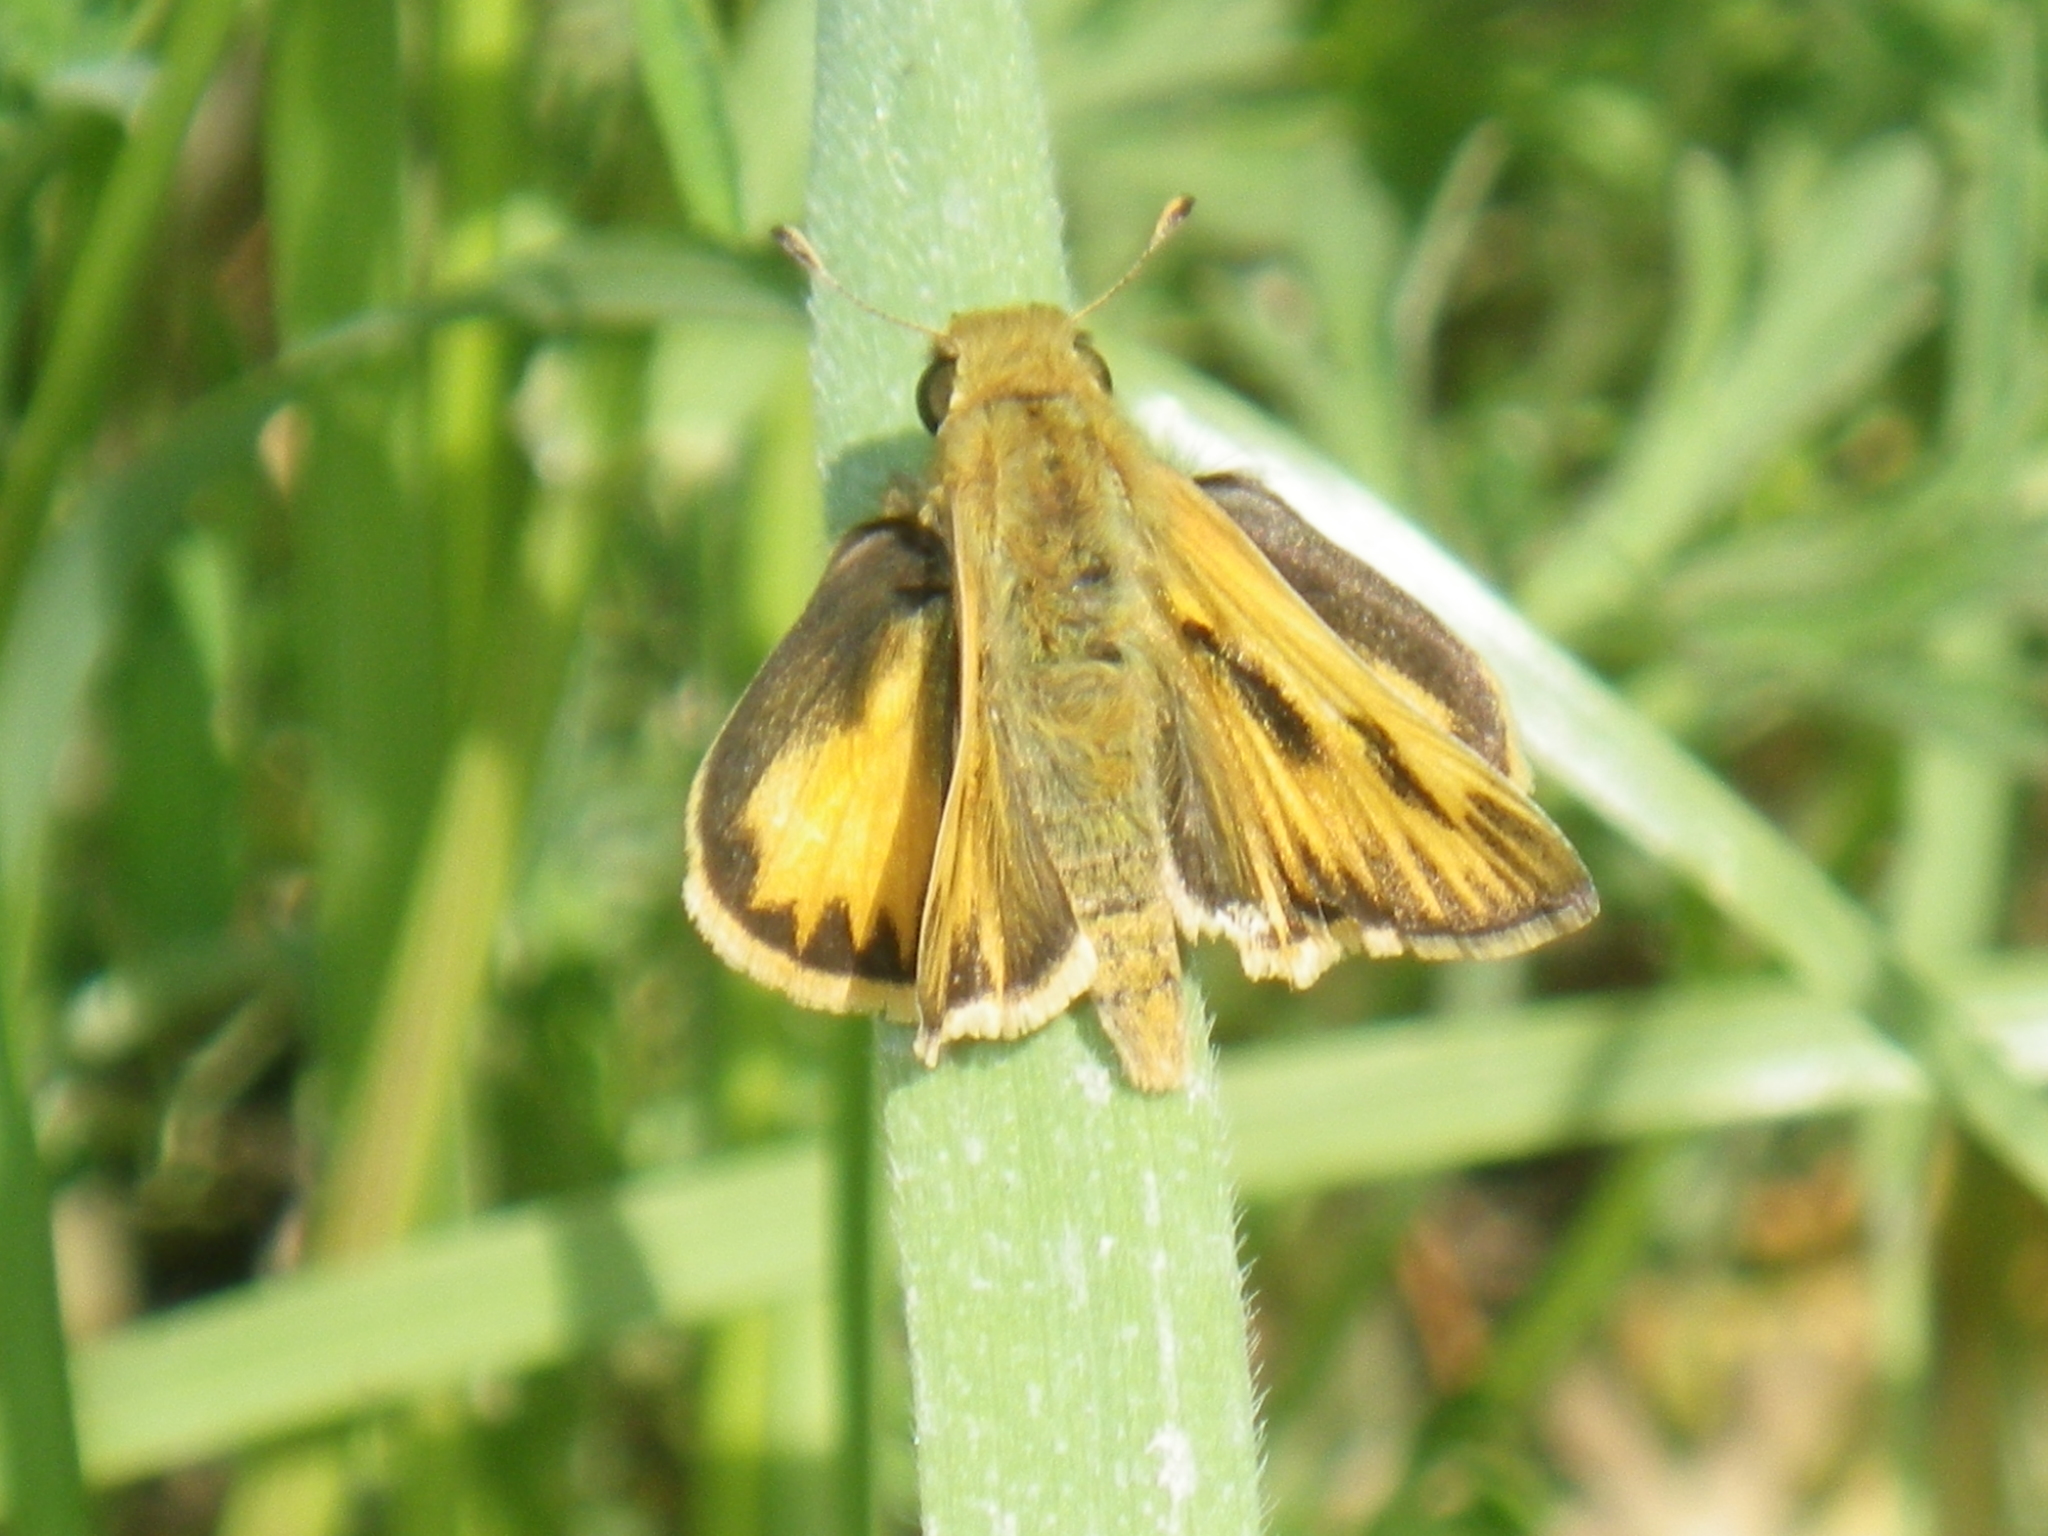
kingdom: Animalia
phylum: Arthropoda
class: Insecta
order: Lepidoptera
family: Hesperiidae
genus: Hylephila
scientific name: Hylephila phyleus
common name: Fiery skipper
